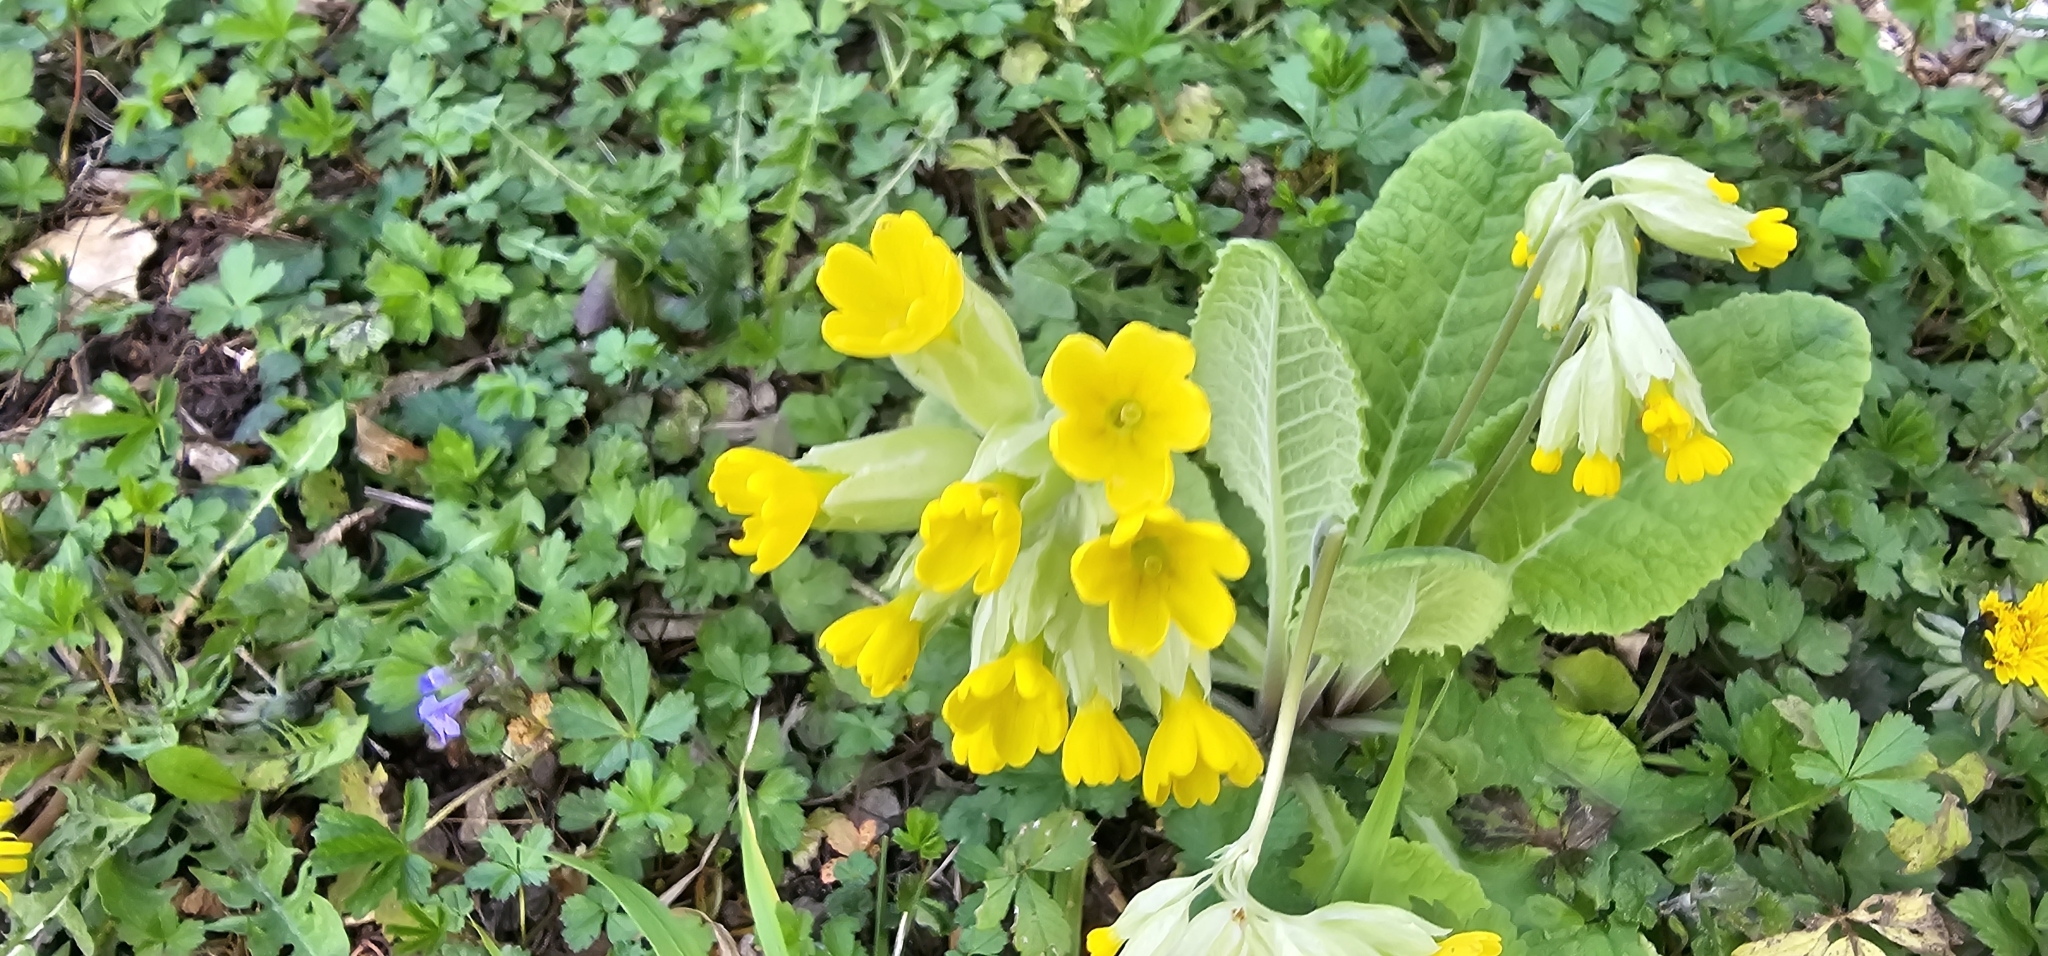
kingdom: Plantae
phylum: Tracheophyta
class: Magnoliopsida
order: Ericales
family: Primulaceae
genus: Primula
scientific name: Primula veris
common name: Cowslip
